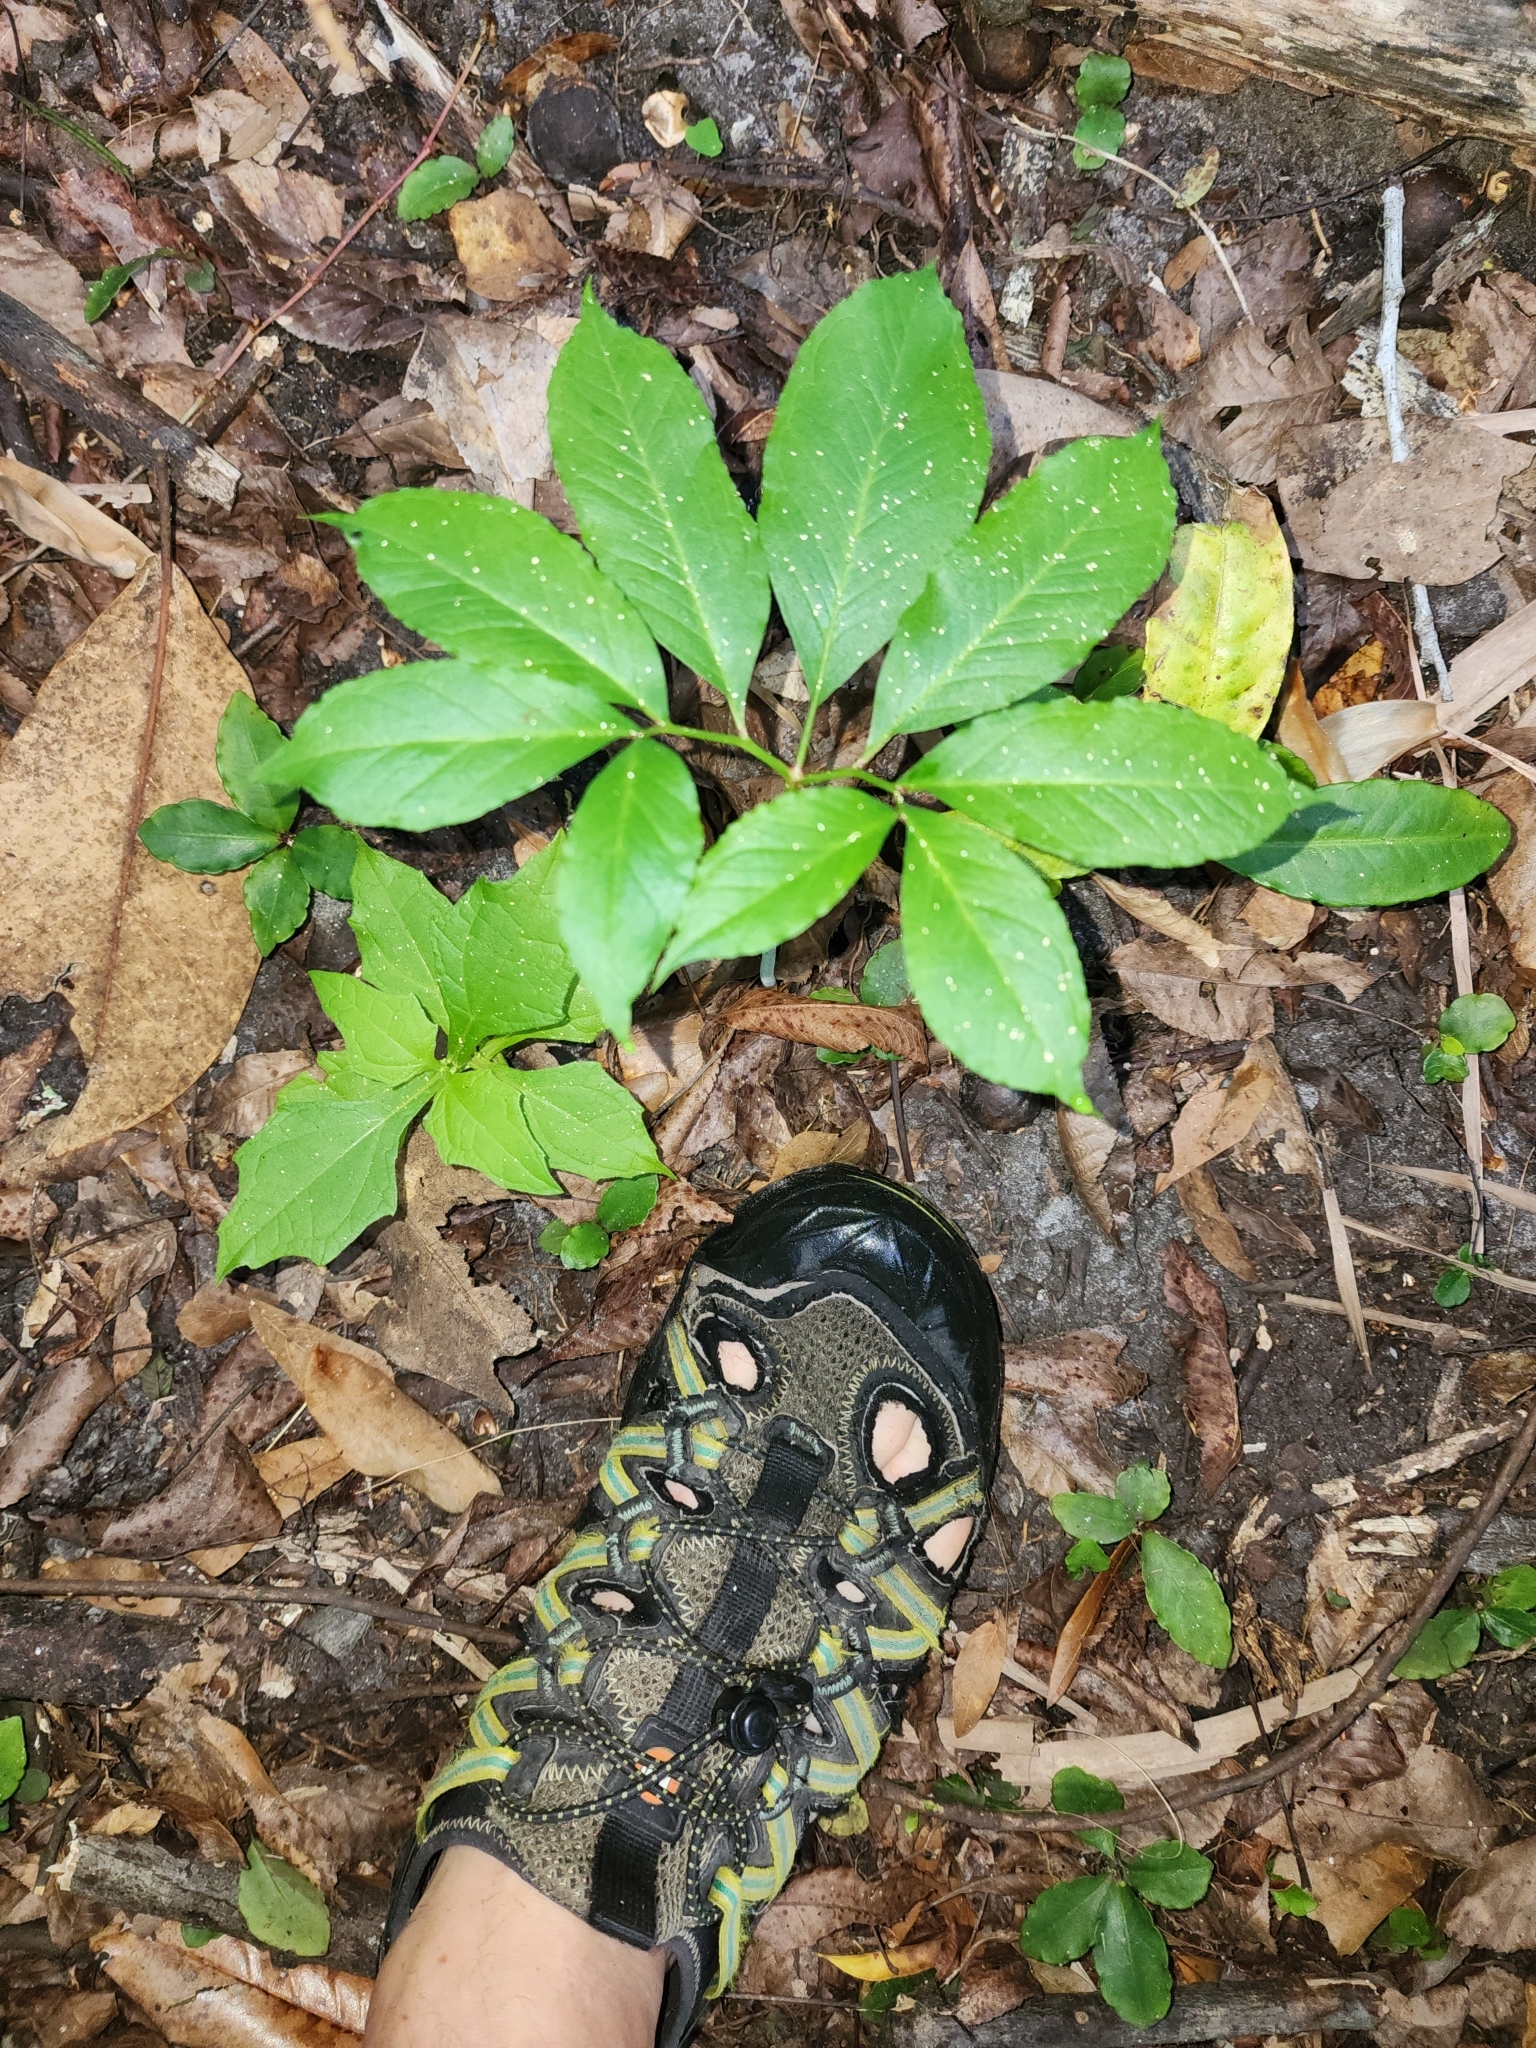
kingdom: Plantae
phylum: Tracheophyta
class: Liliopsida
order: Alismatales
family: Araceae
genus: Arisaema
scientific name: Arisaema dracontium
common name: Dragon-arum
